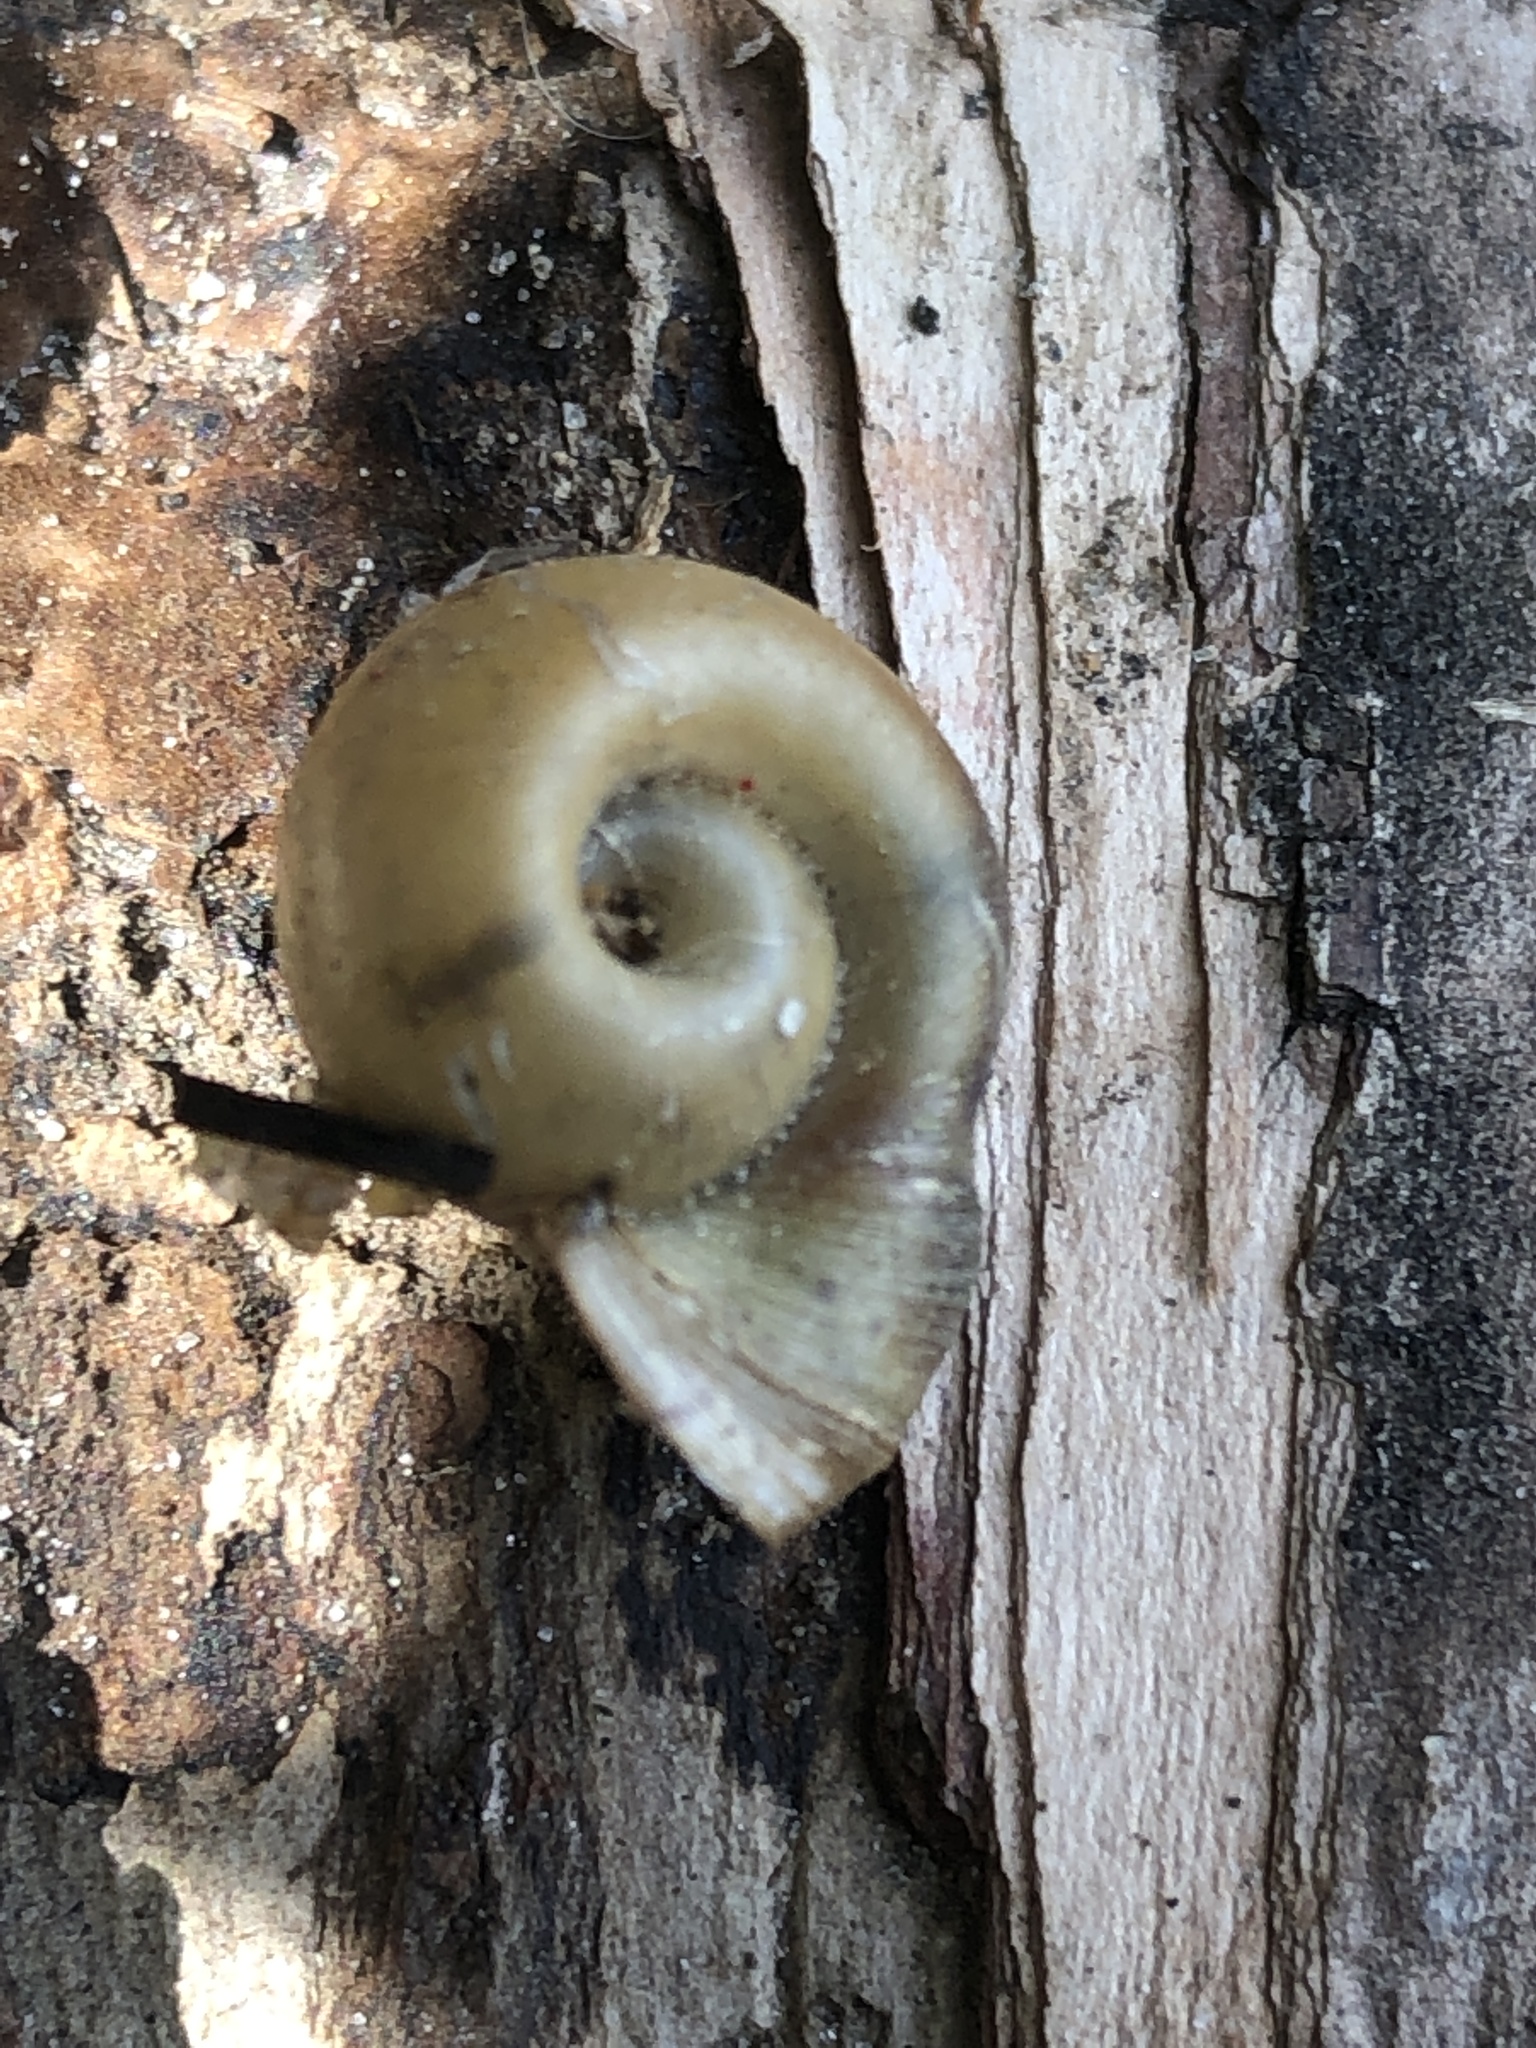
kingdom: Animalia
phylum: Mollusca
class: Gastropoda
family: Planorbidae
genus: Planorbella
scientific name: Planorbella trivolvis
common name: Marsh rams-horn
